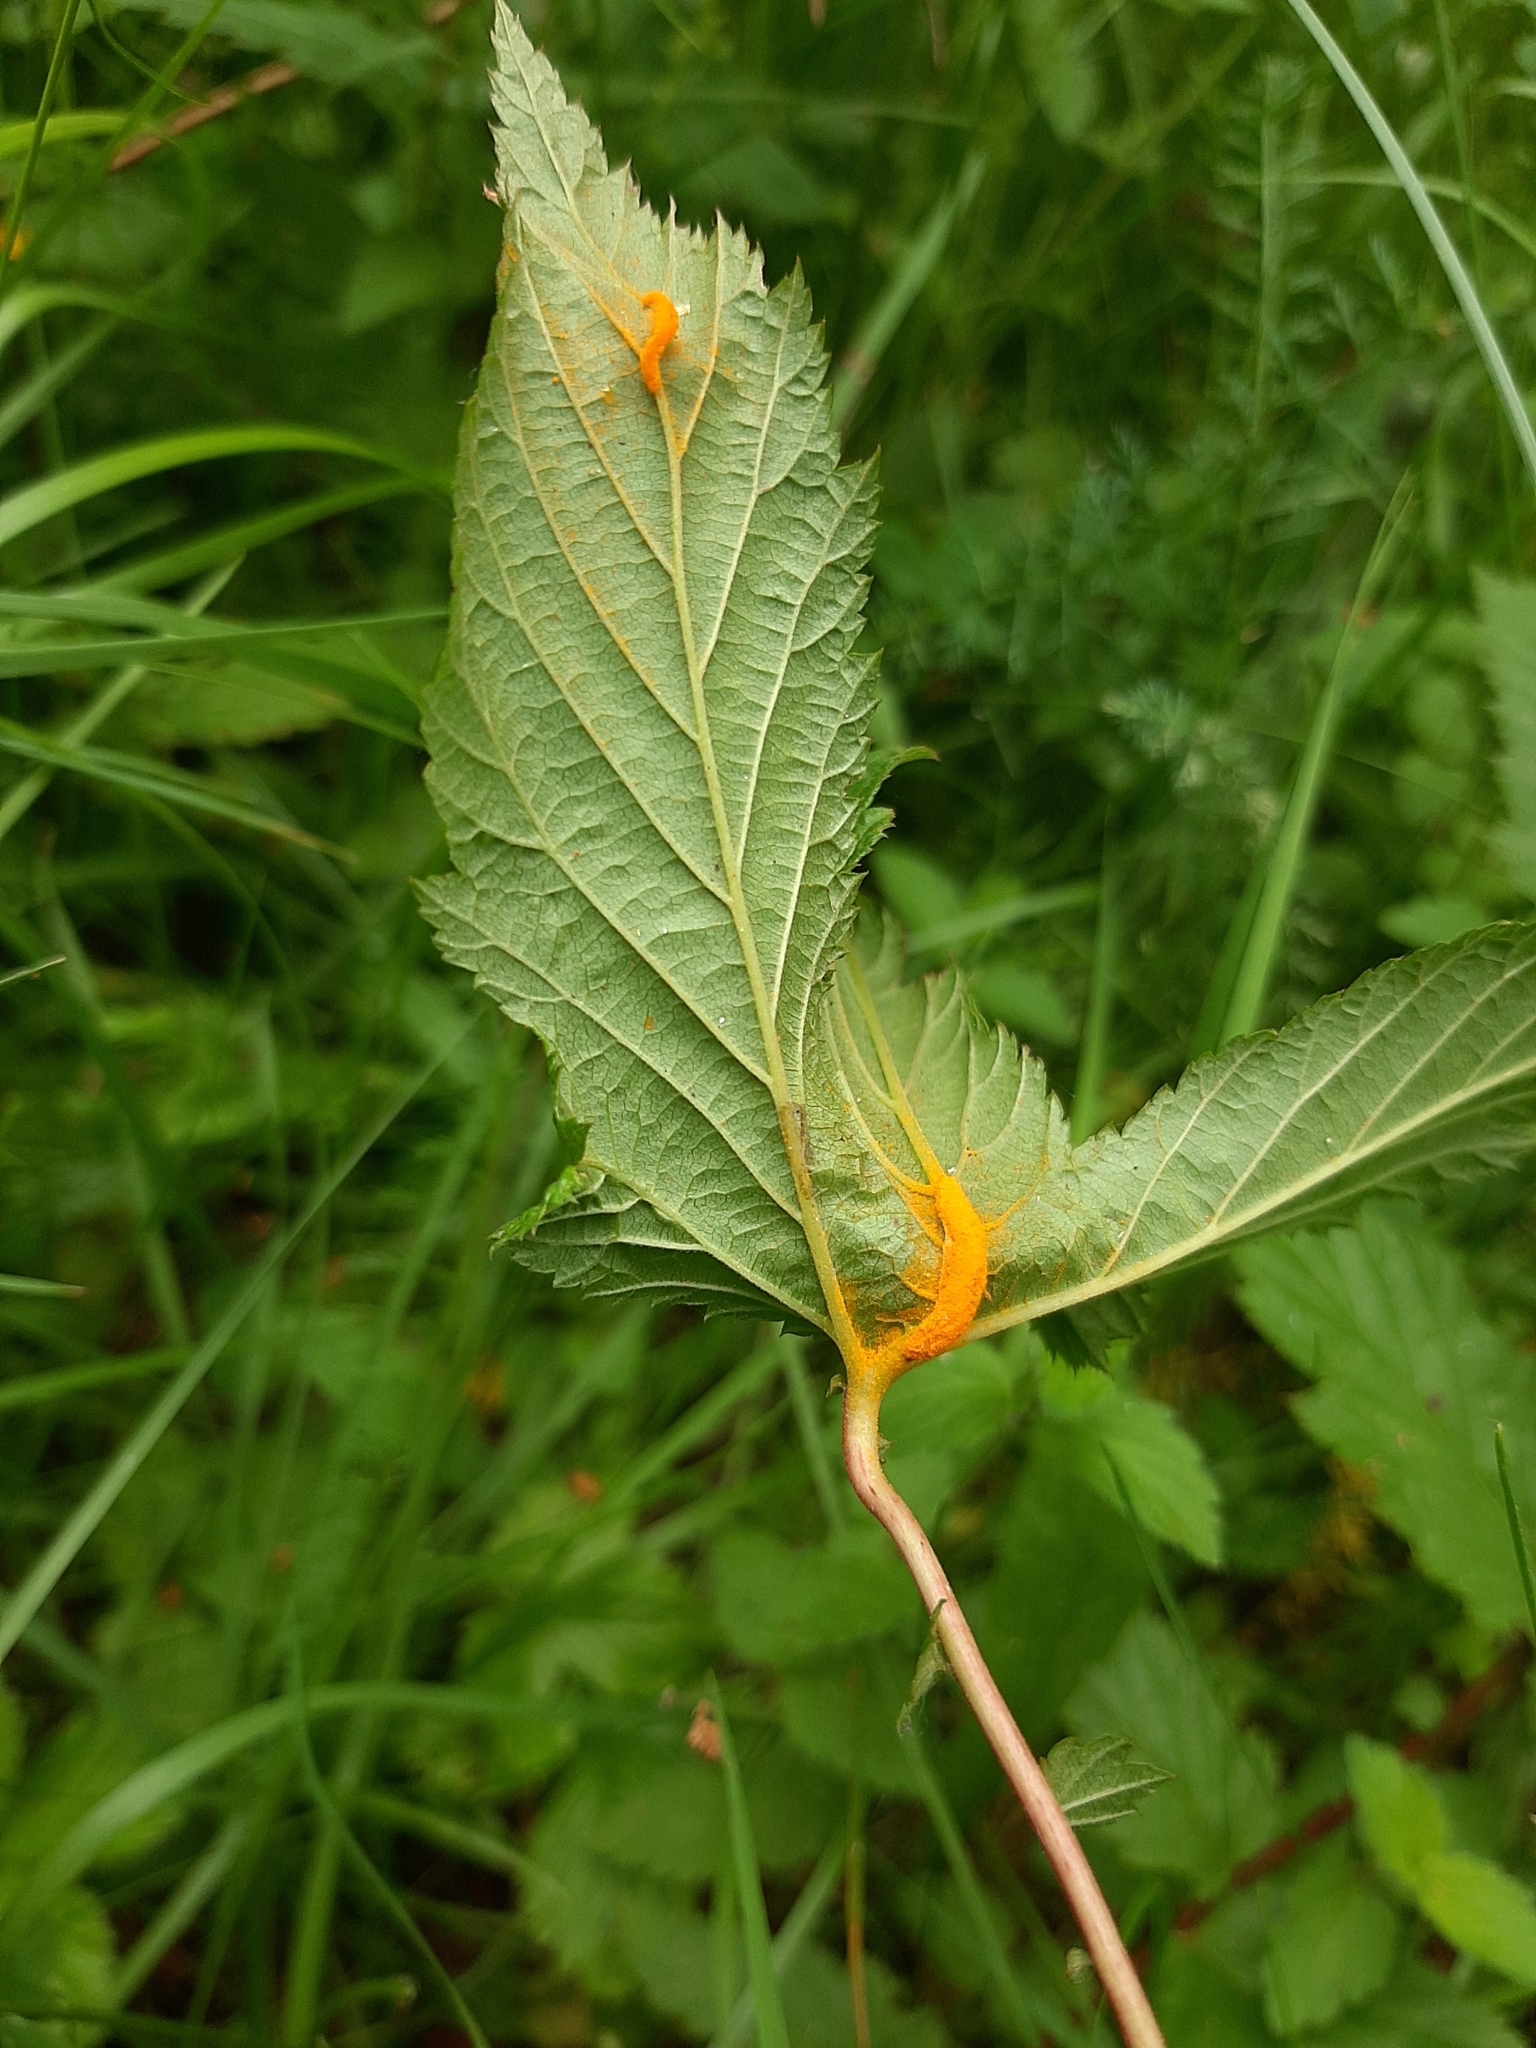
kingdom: Fungi
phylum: Basidiomycota
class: Pucciniomycetes
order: Pucciniales
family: Raveneliaceae
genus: Triphragmium
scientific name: Triphragmium ulmariae
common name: Meadowsweet rust
